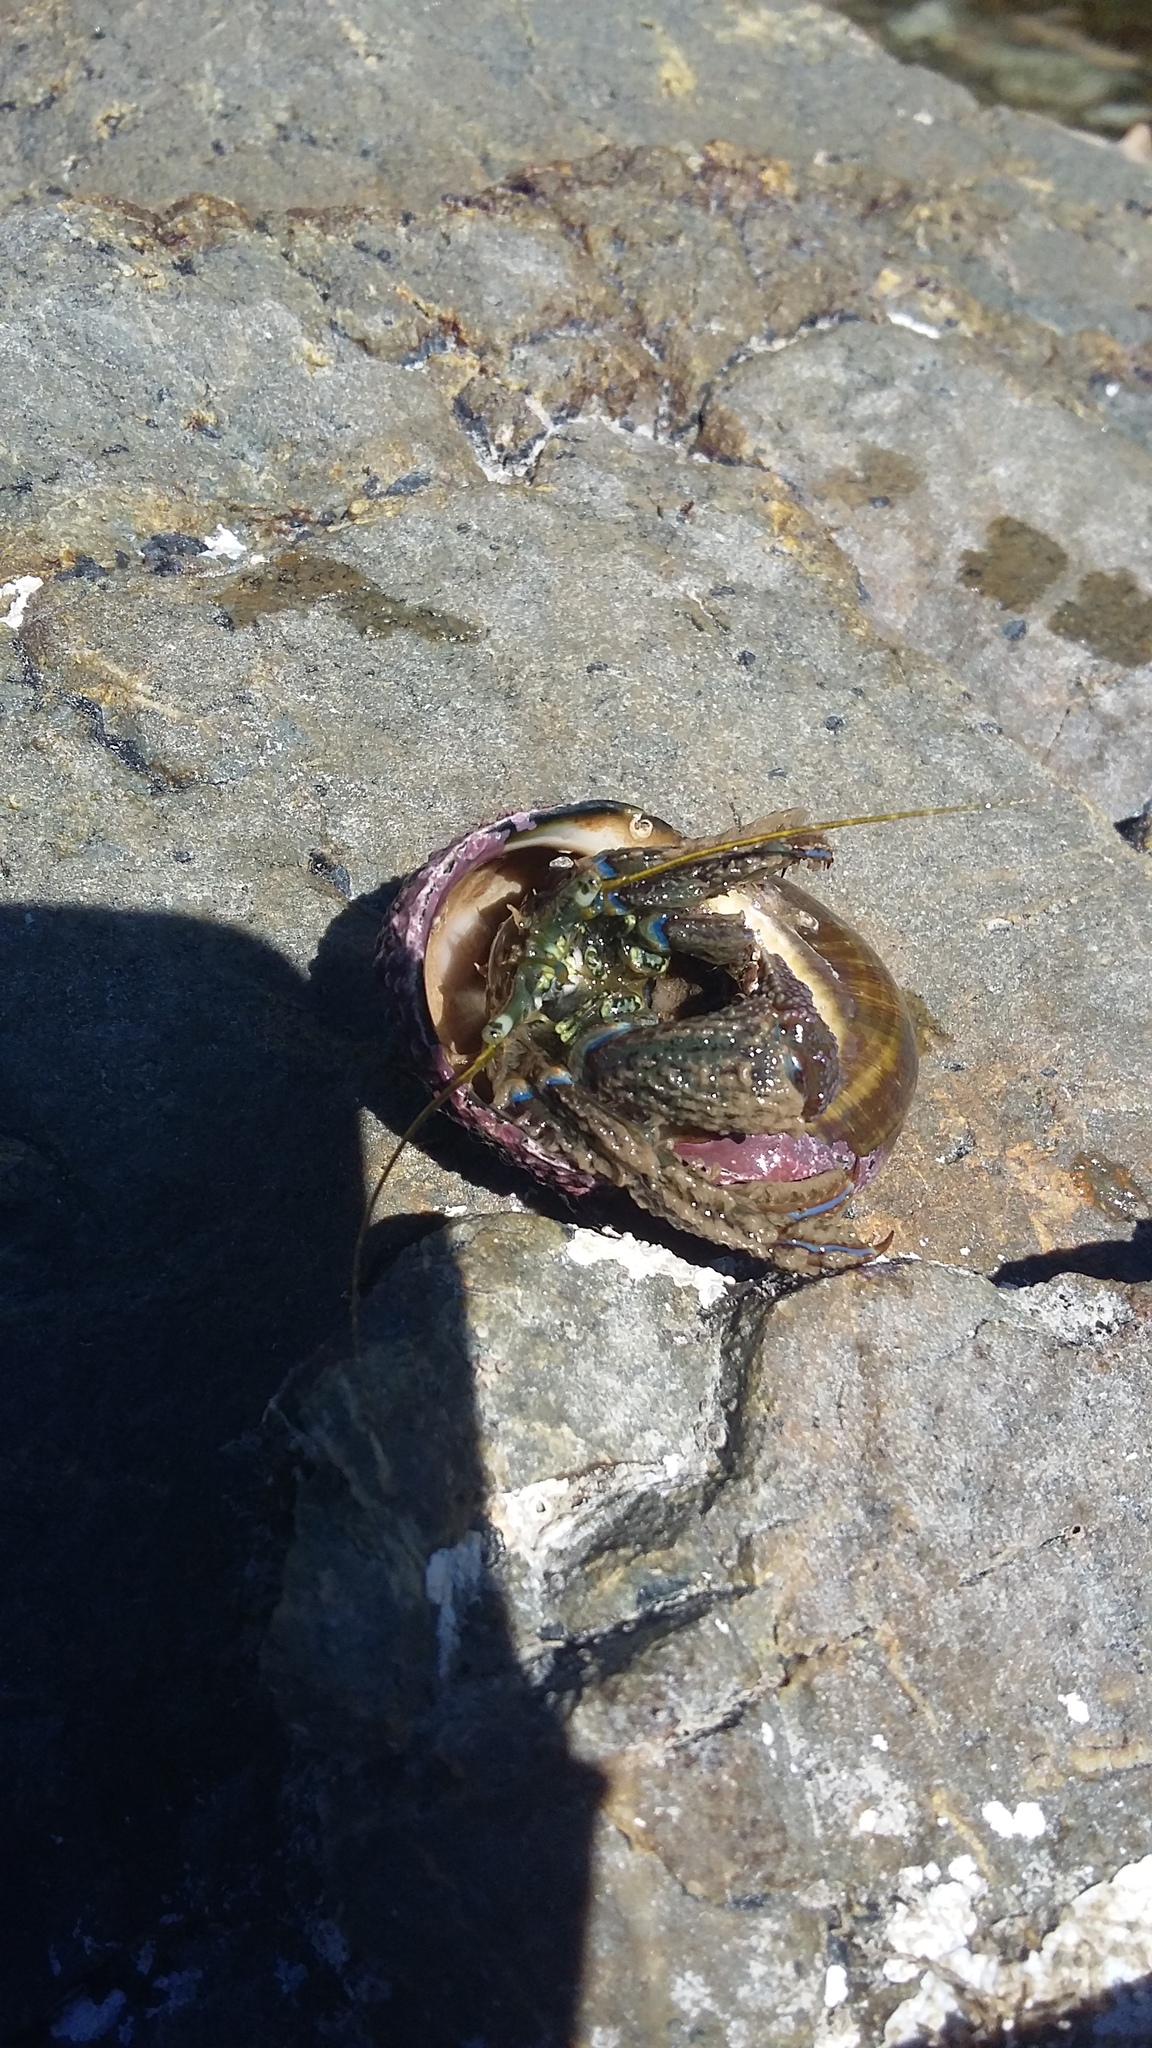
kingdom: Animalia
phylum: Arthropoda
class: Malacostraca
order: Decapoda
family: Paguridae
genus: Pagurus
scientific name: Pagurus novizealandiae
